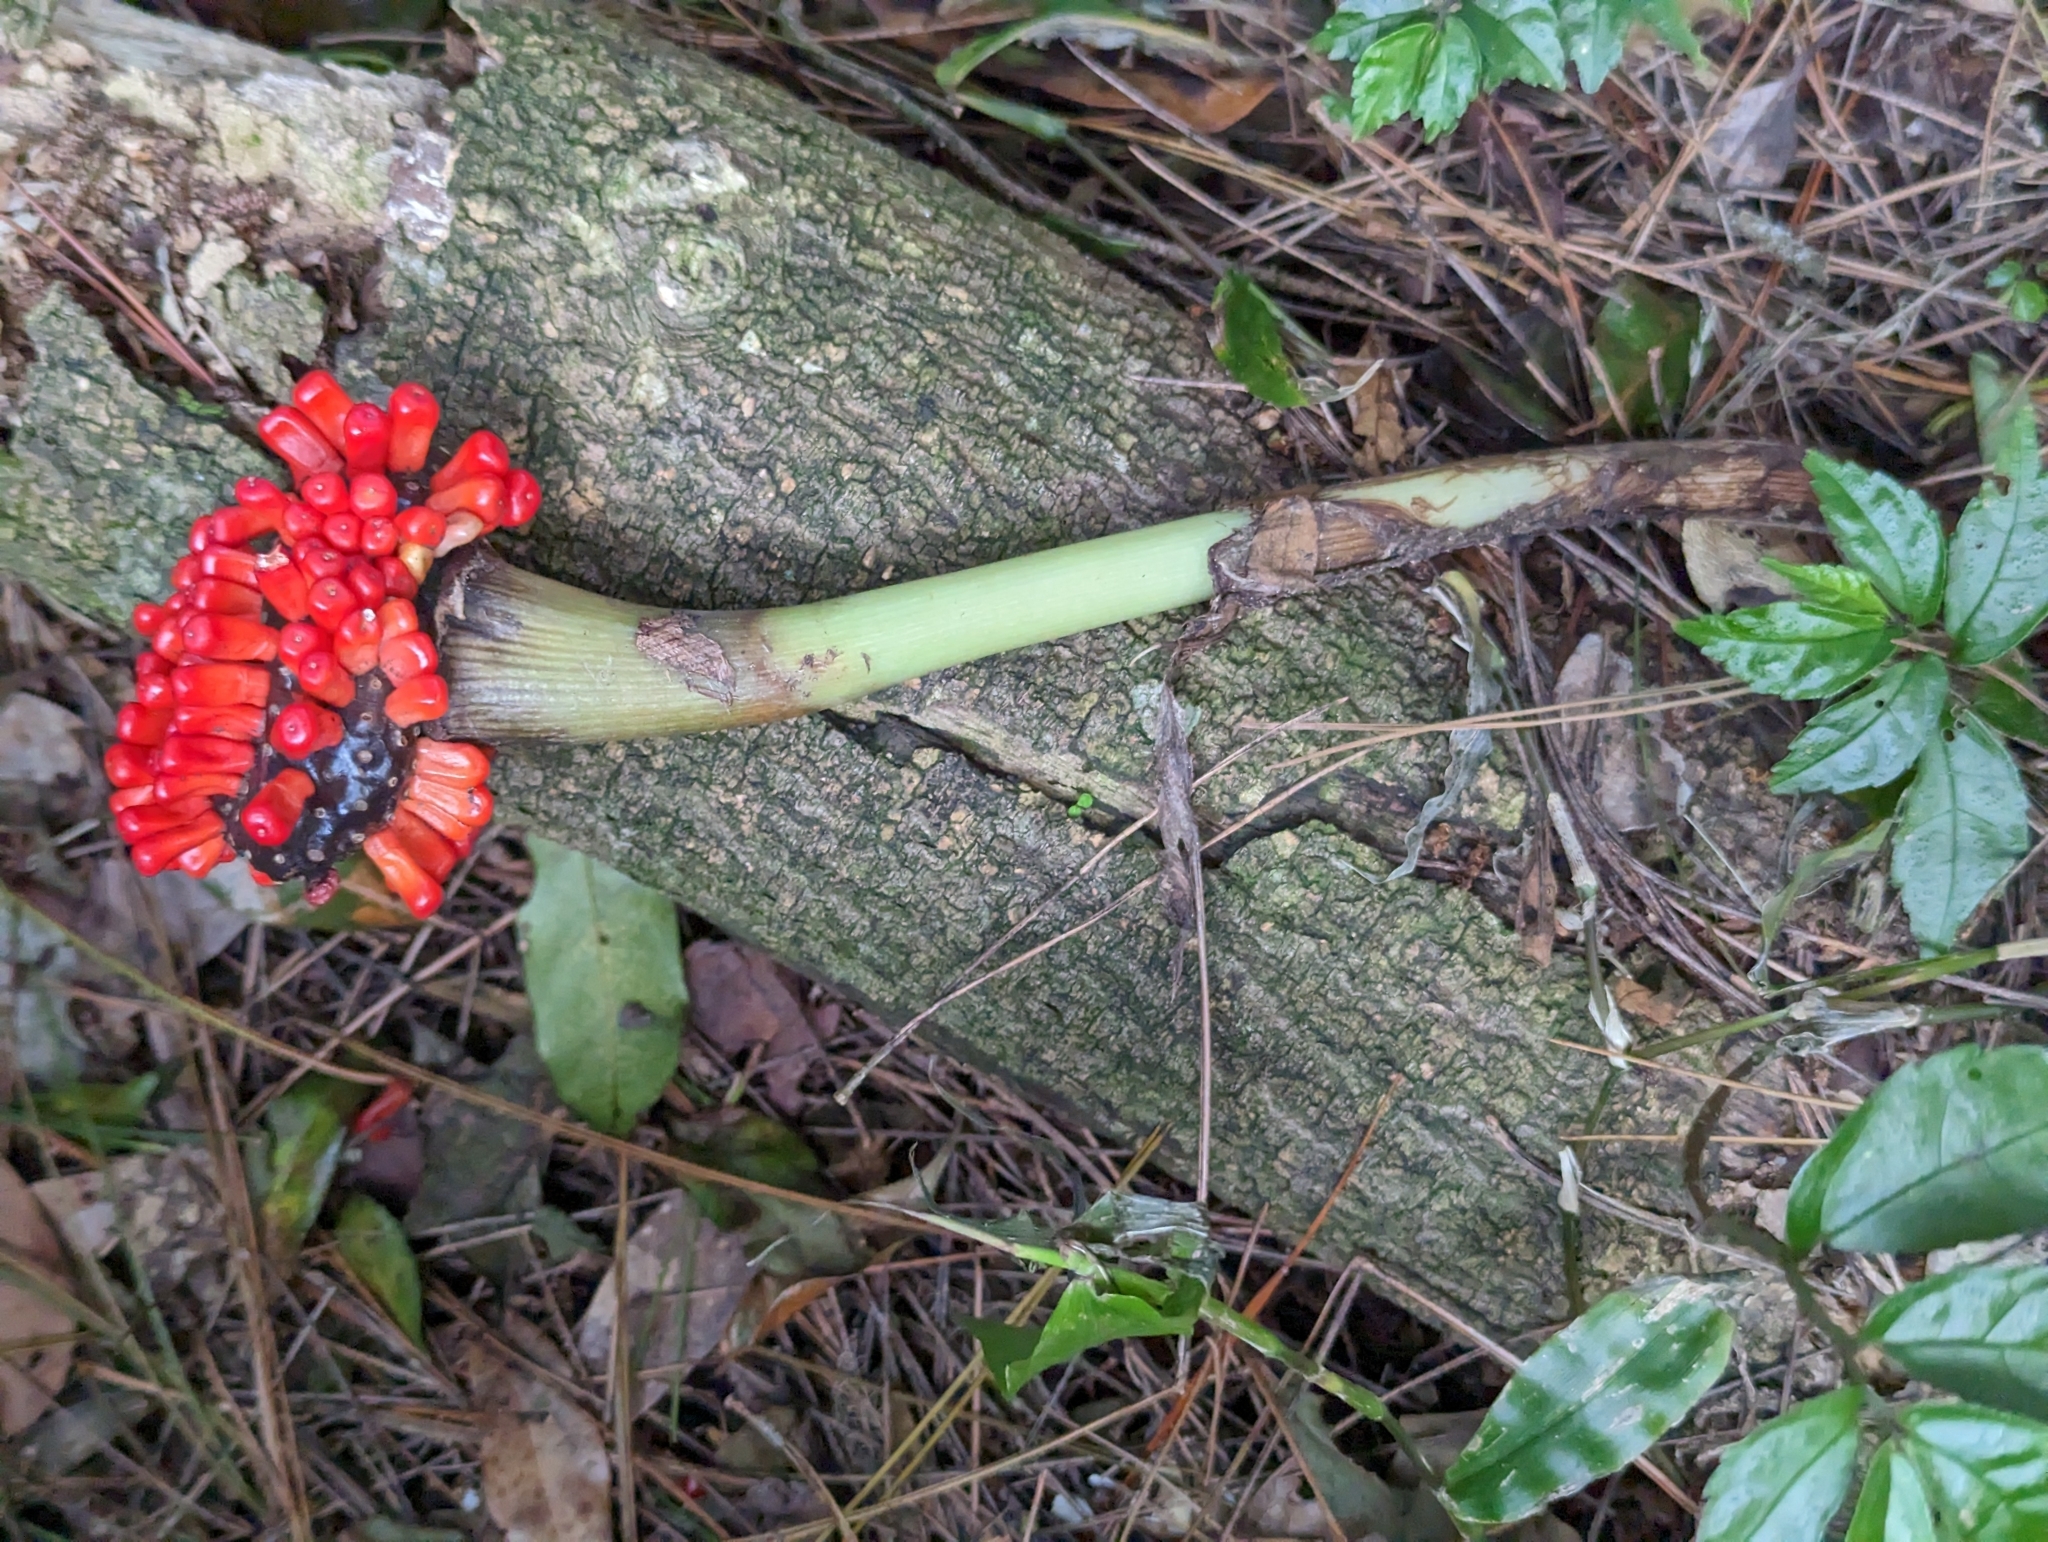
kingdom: Plantae
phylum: Tracheophyta
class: Liliopsida
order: Alismatales
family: Araceae
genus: Arisaema
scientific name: Arisaema ringens
